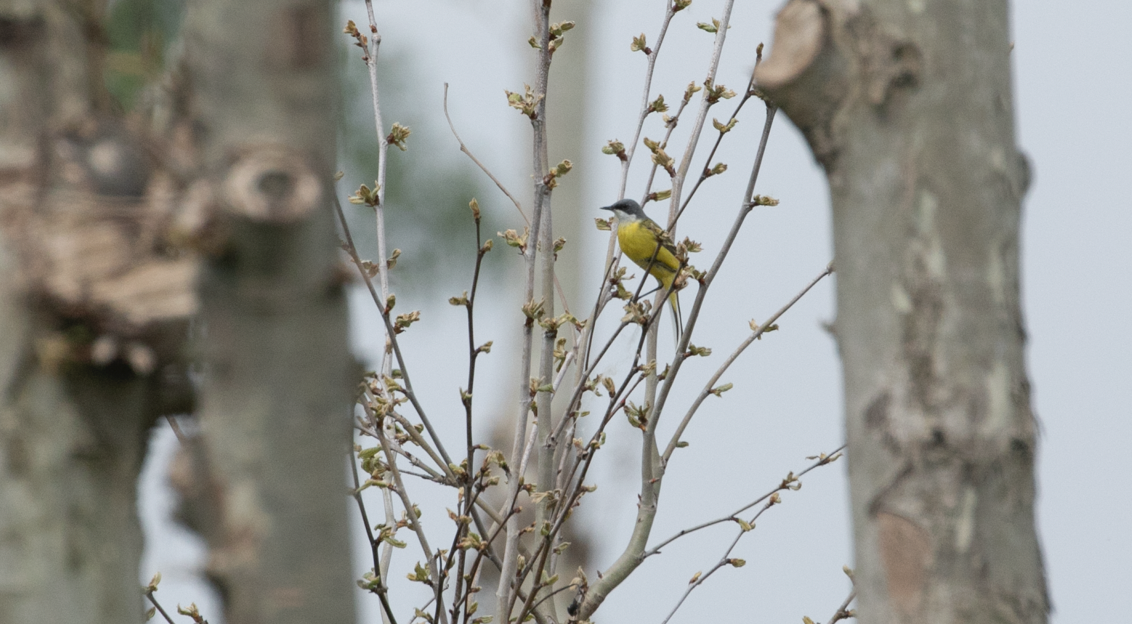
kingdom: Animalia
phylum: Chordata
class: Aves
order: Passeriformes
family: Motacillidae
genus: Motacilla
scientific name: Motacilla flava
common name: Western yellow wagtail
